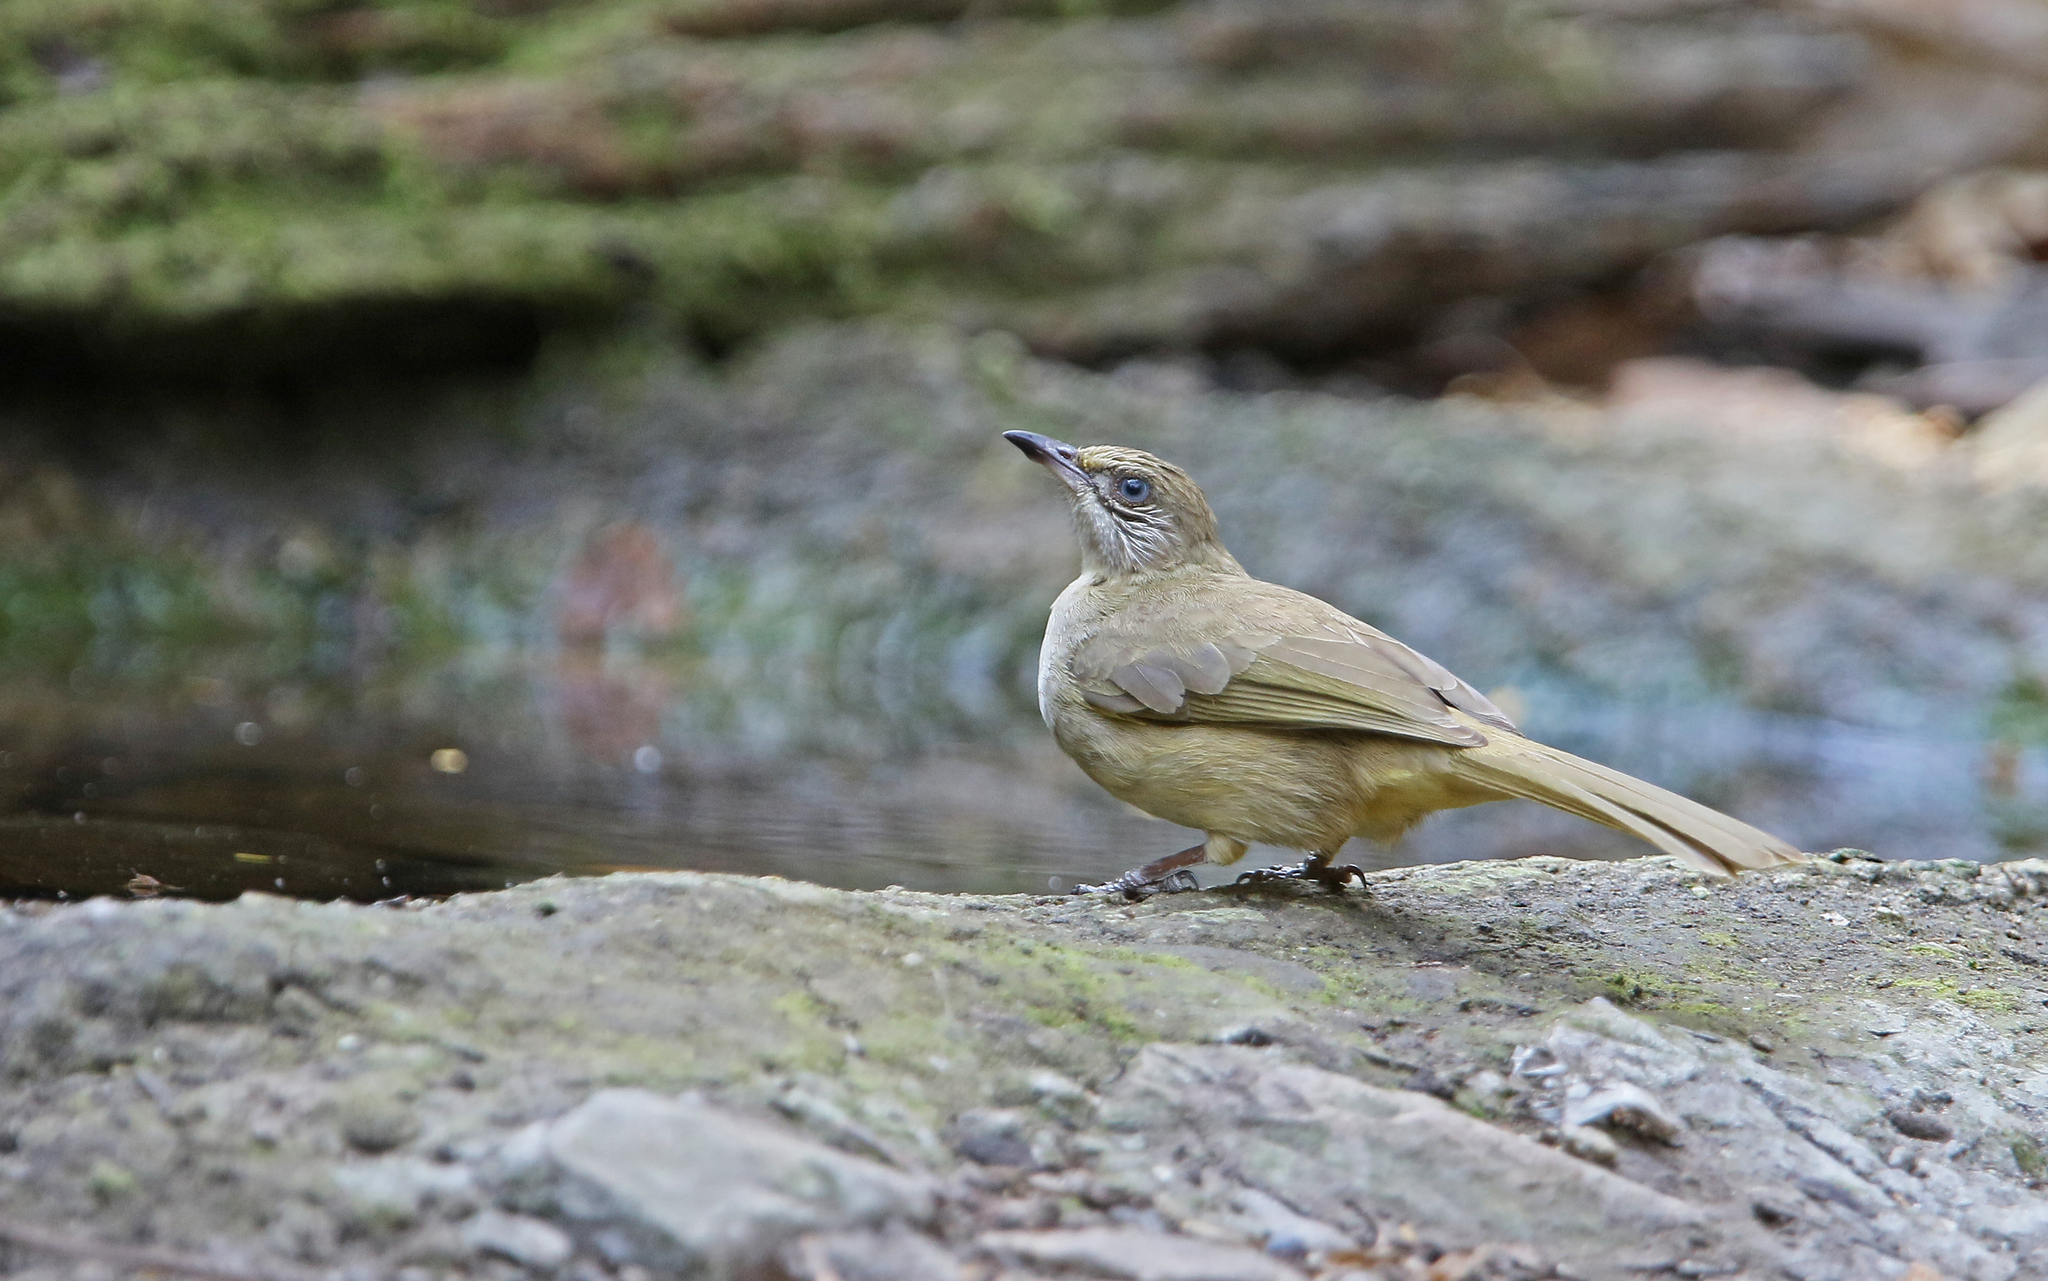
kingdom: Animalia
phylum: Chordata
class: Aves
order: Passeriformes
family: Pycnonotidae
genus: Pycnonotus
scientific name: Pycnonotus blanfordi
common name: Streak-eared bulbul
